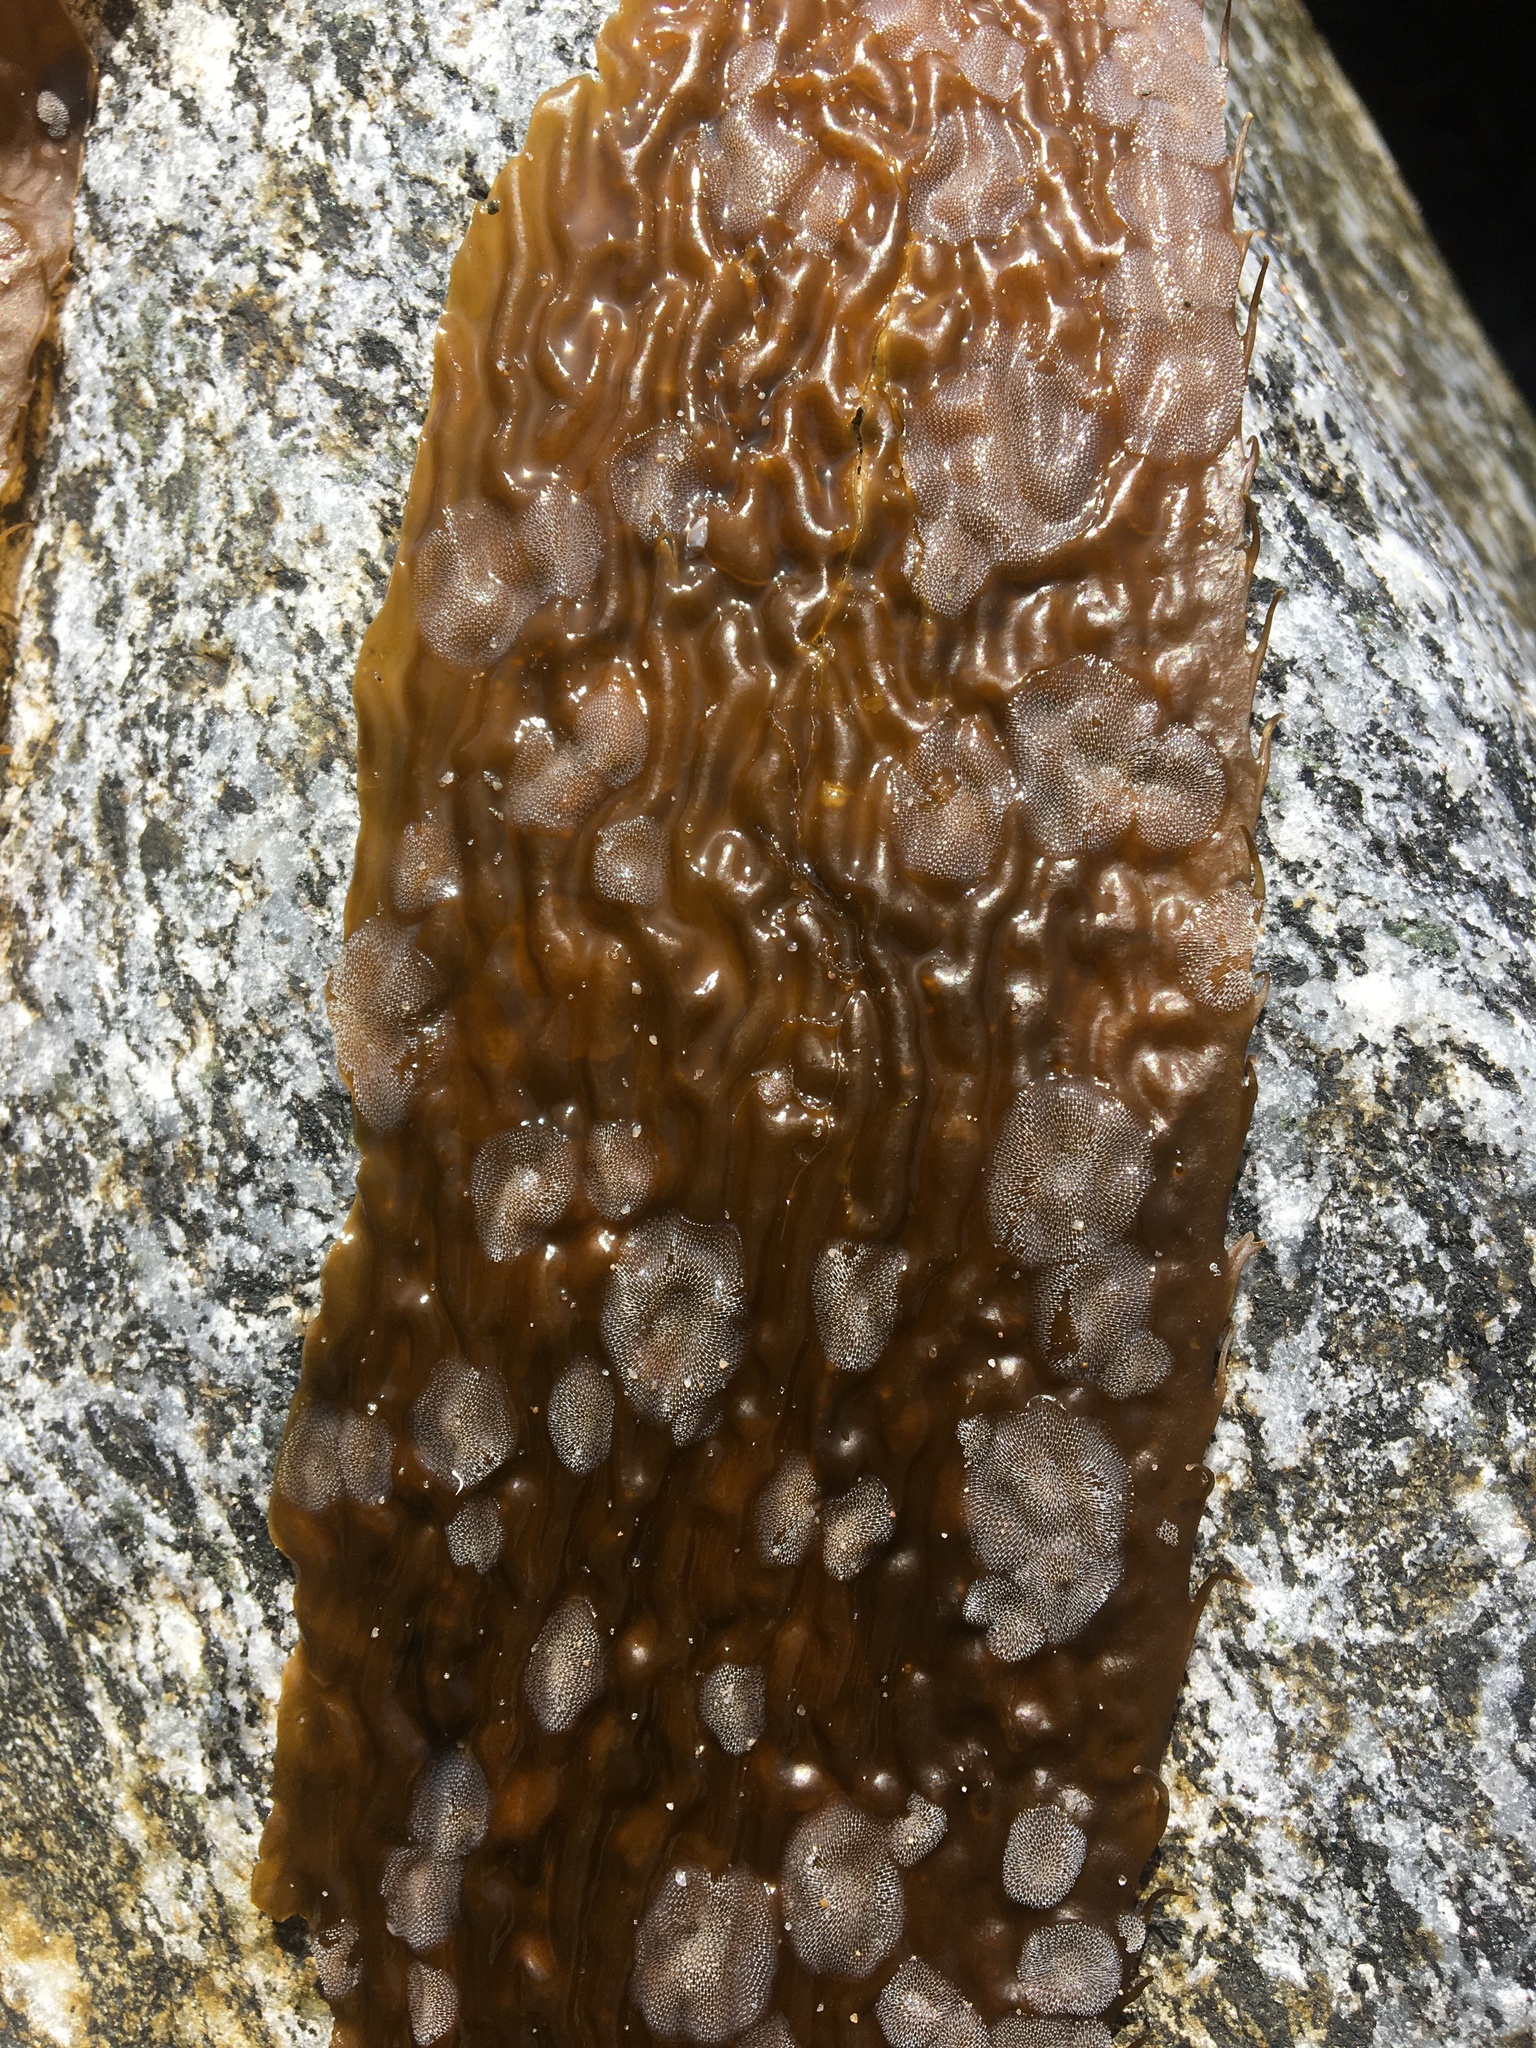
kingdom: Animalia
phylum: Bryozoa
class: Gymnolaemata
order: Cheilostomatida
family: Membraniporidae
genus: Membranipora
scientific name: Membranipora membranacea
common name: Sea mat
